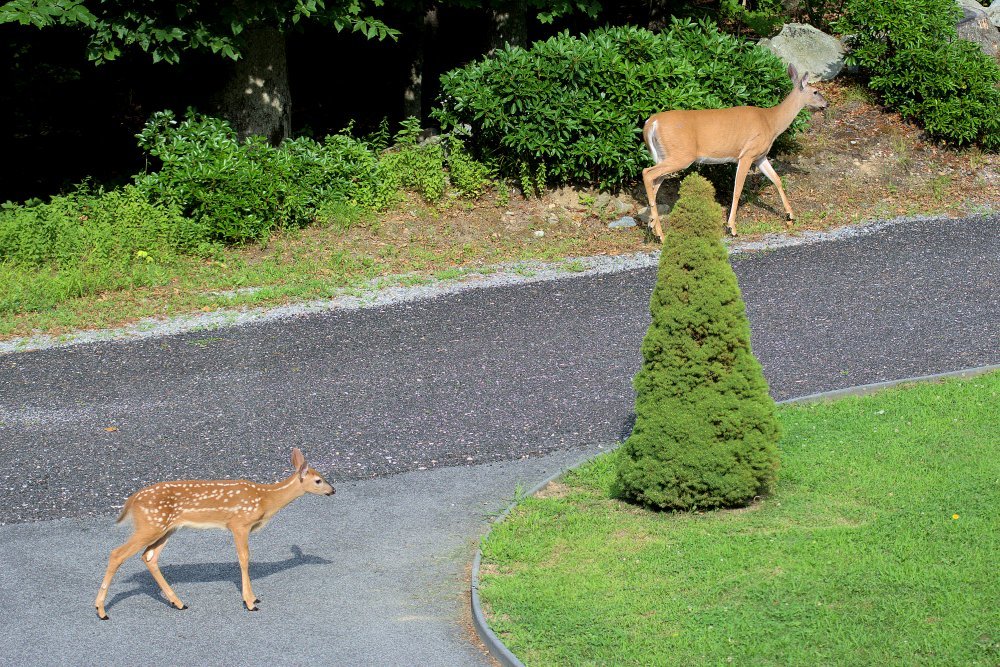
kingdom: Animalia
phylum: Chordata
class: Mammalia
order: Artiodactyla
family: Cervidae
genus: Odocoileus
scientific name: Odocoileus virginianus
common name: White-tailed deer
